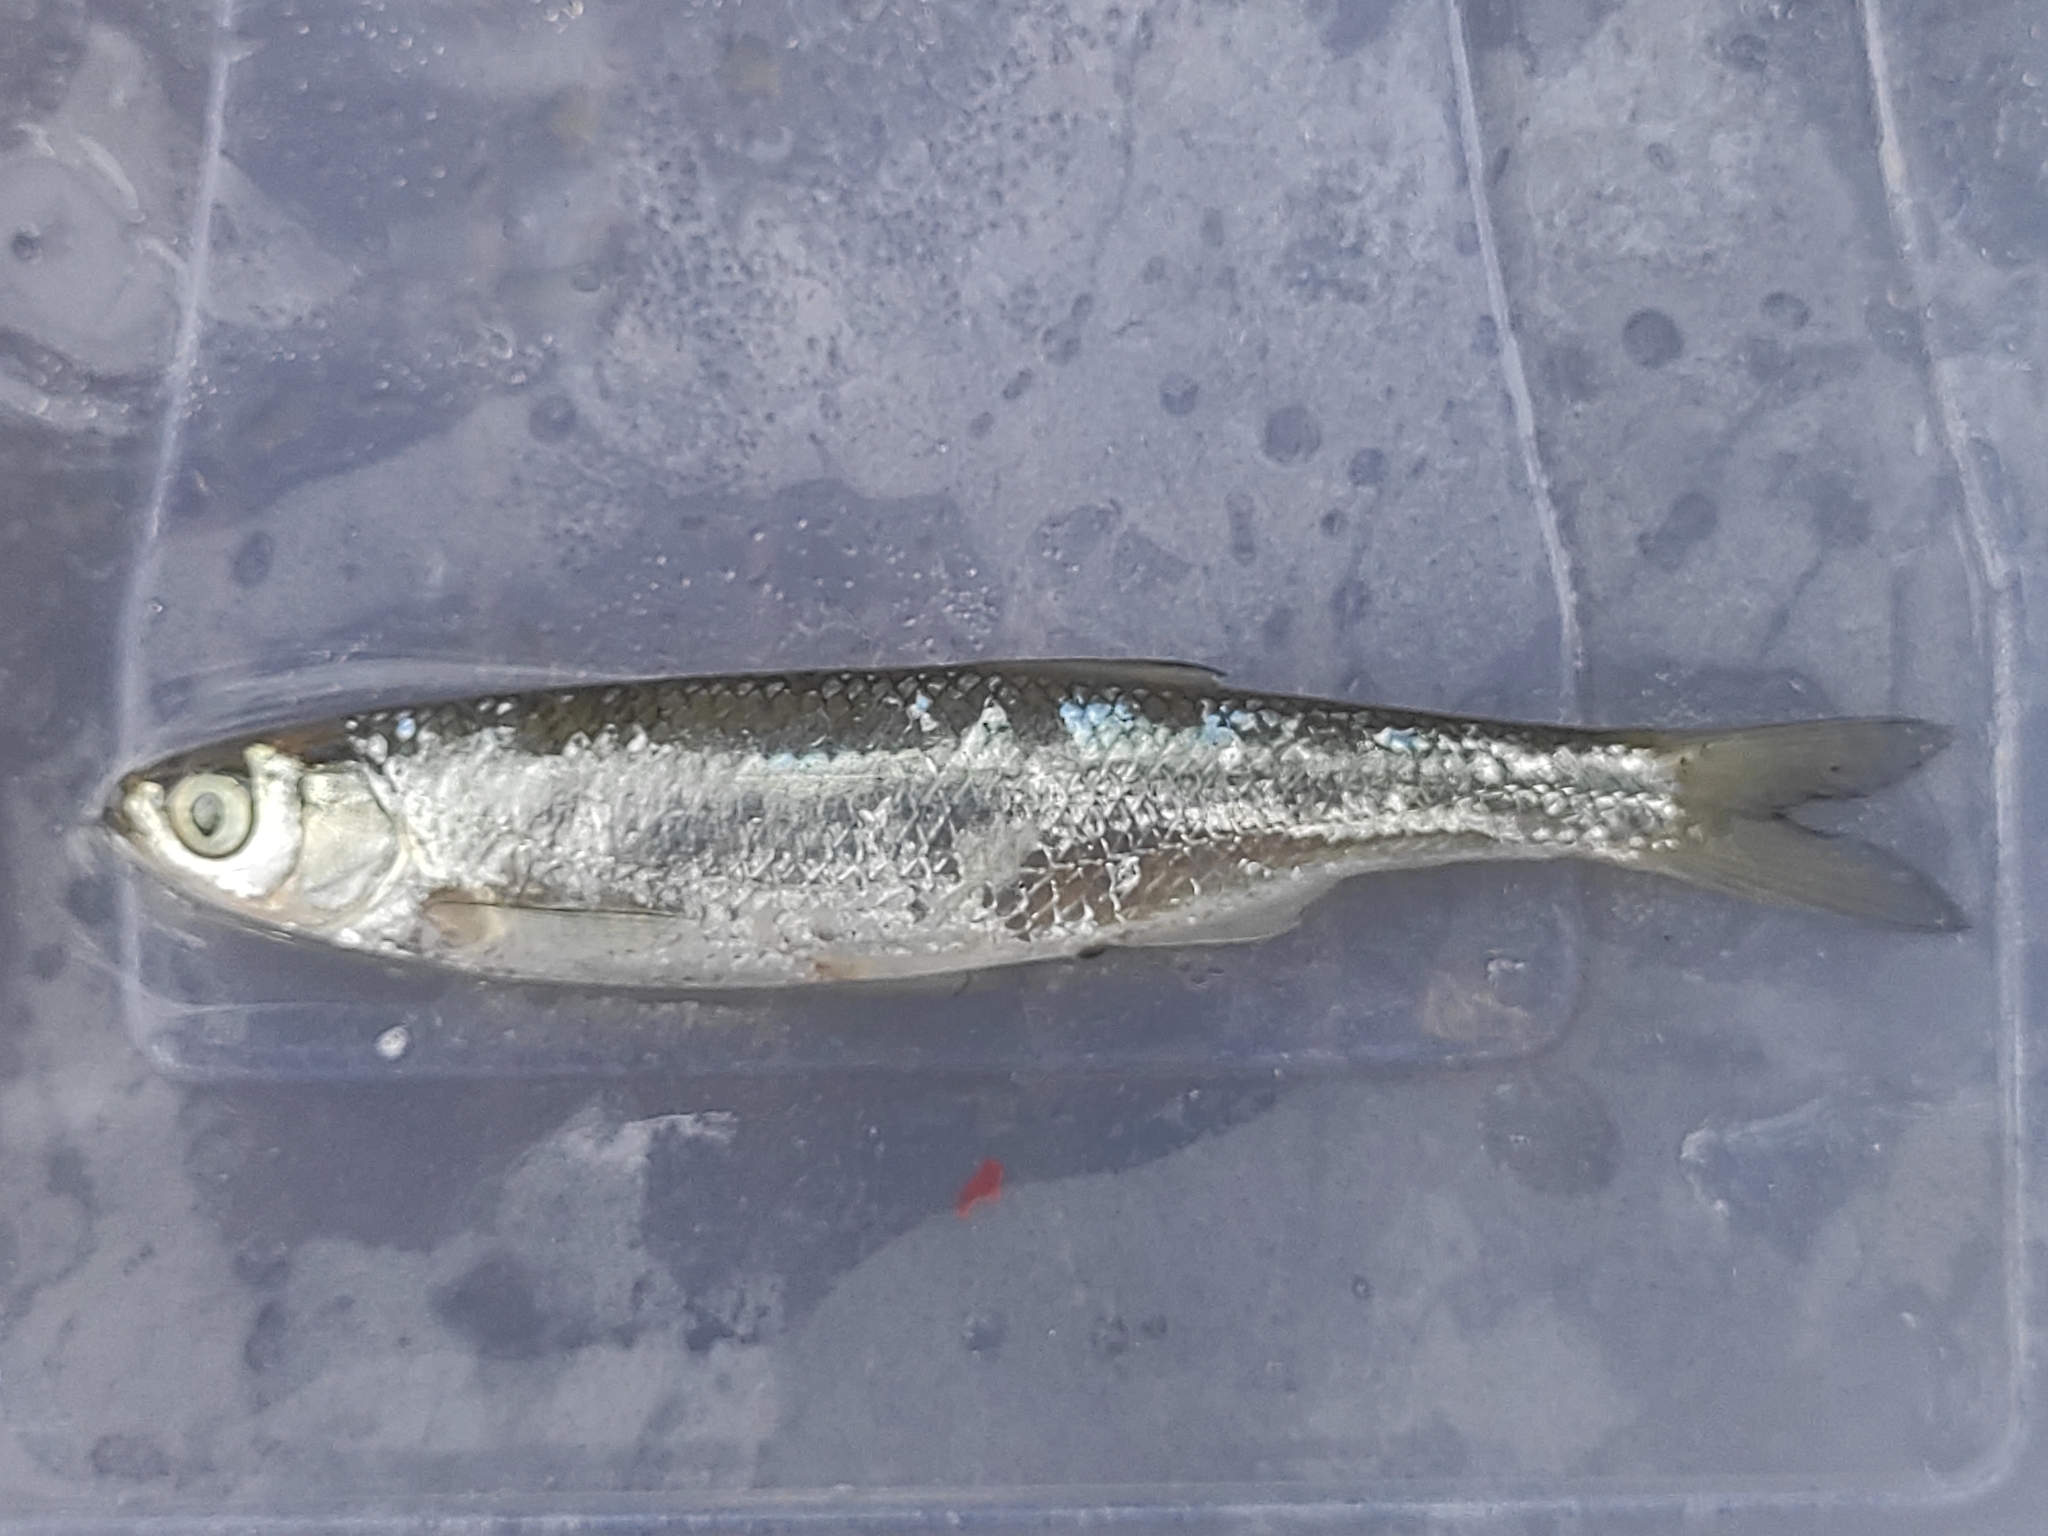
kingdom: Animalia
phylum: Chordata
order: Cypriniformes
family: Cyprinidae
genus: Alburnus
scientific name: Alburnus alburnus
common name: Bleak
